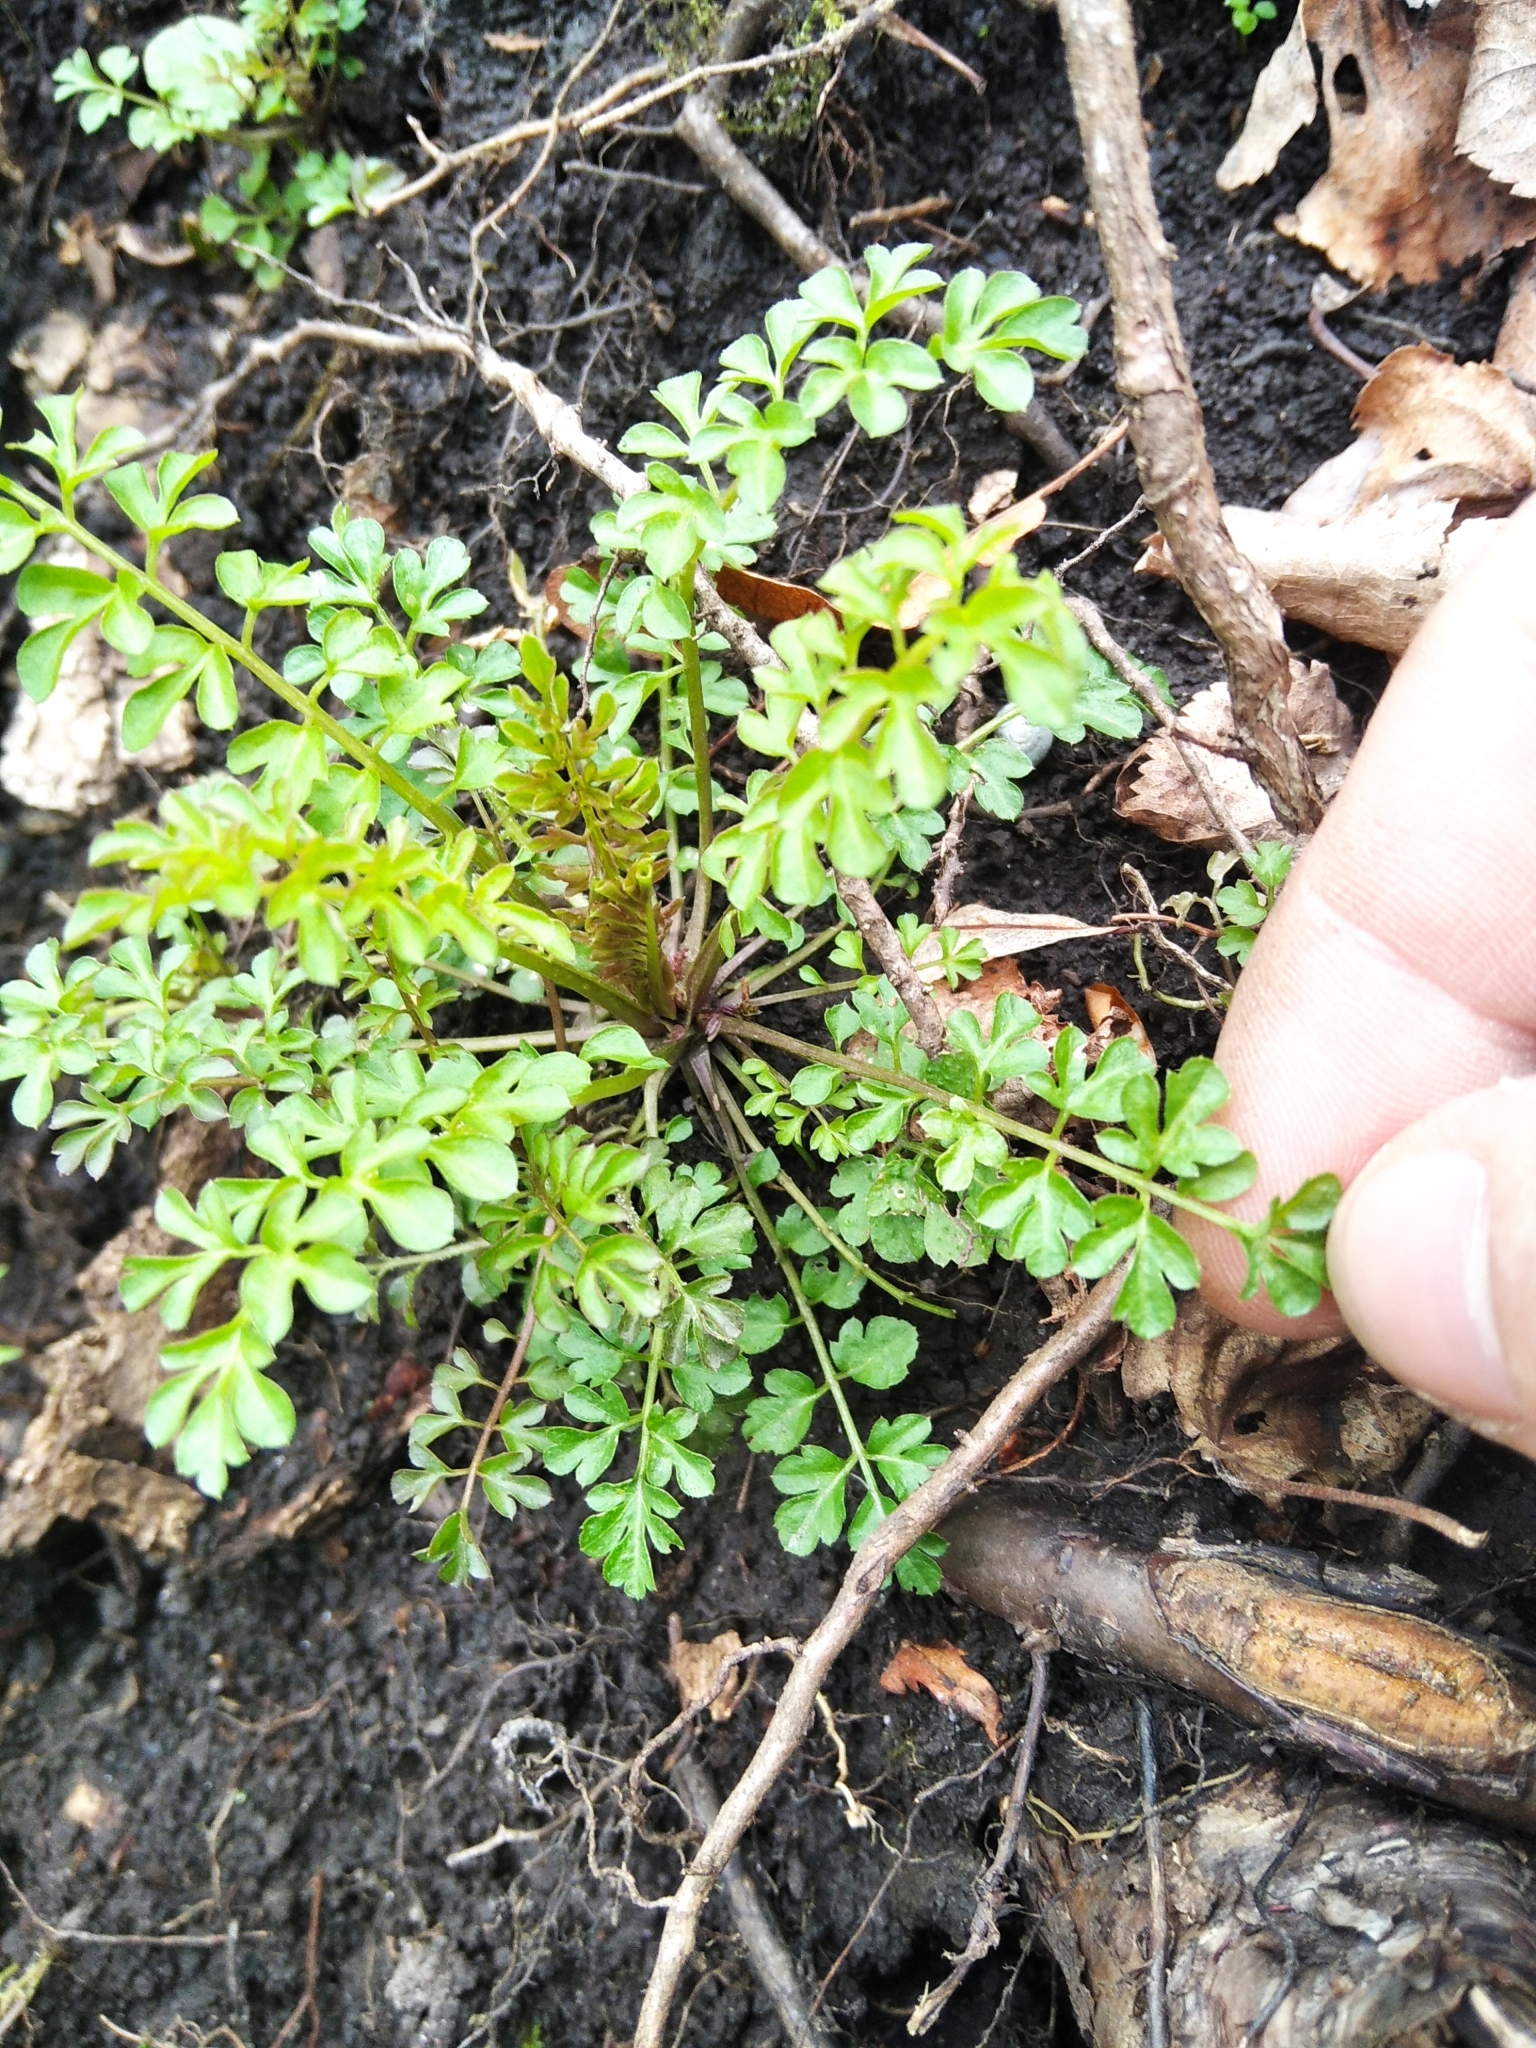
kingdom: Plantae
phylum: Tracheophyta
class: Magnoliopsida
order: Brassicales
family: Brassicaceae
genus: Cardamine
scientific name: Cardamine impatiens
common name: Narrow-leaved bitter-cress
